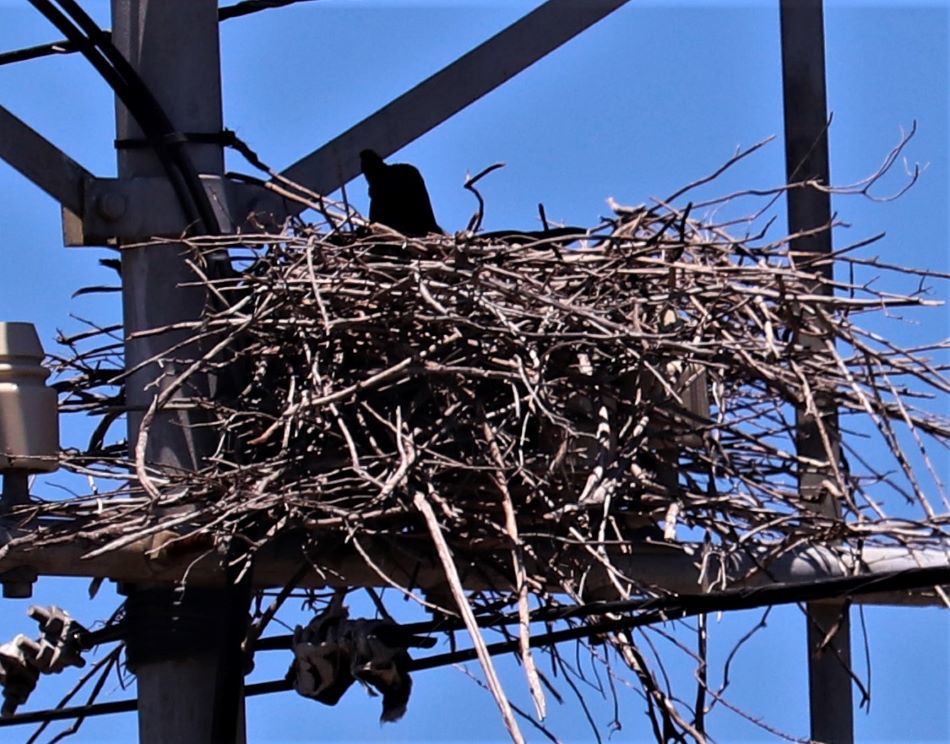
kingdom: Animalia
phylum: Chordata
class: Aves
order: Passeriformes
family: Corvidae
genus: Corvus
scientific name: Corvus capensis
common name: Cape crow
